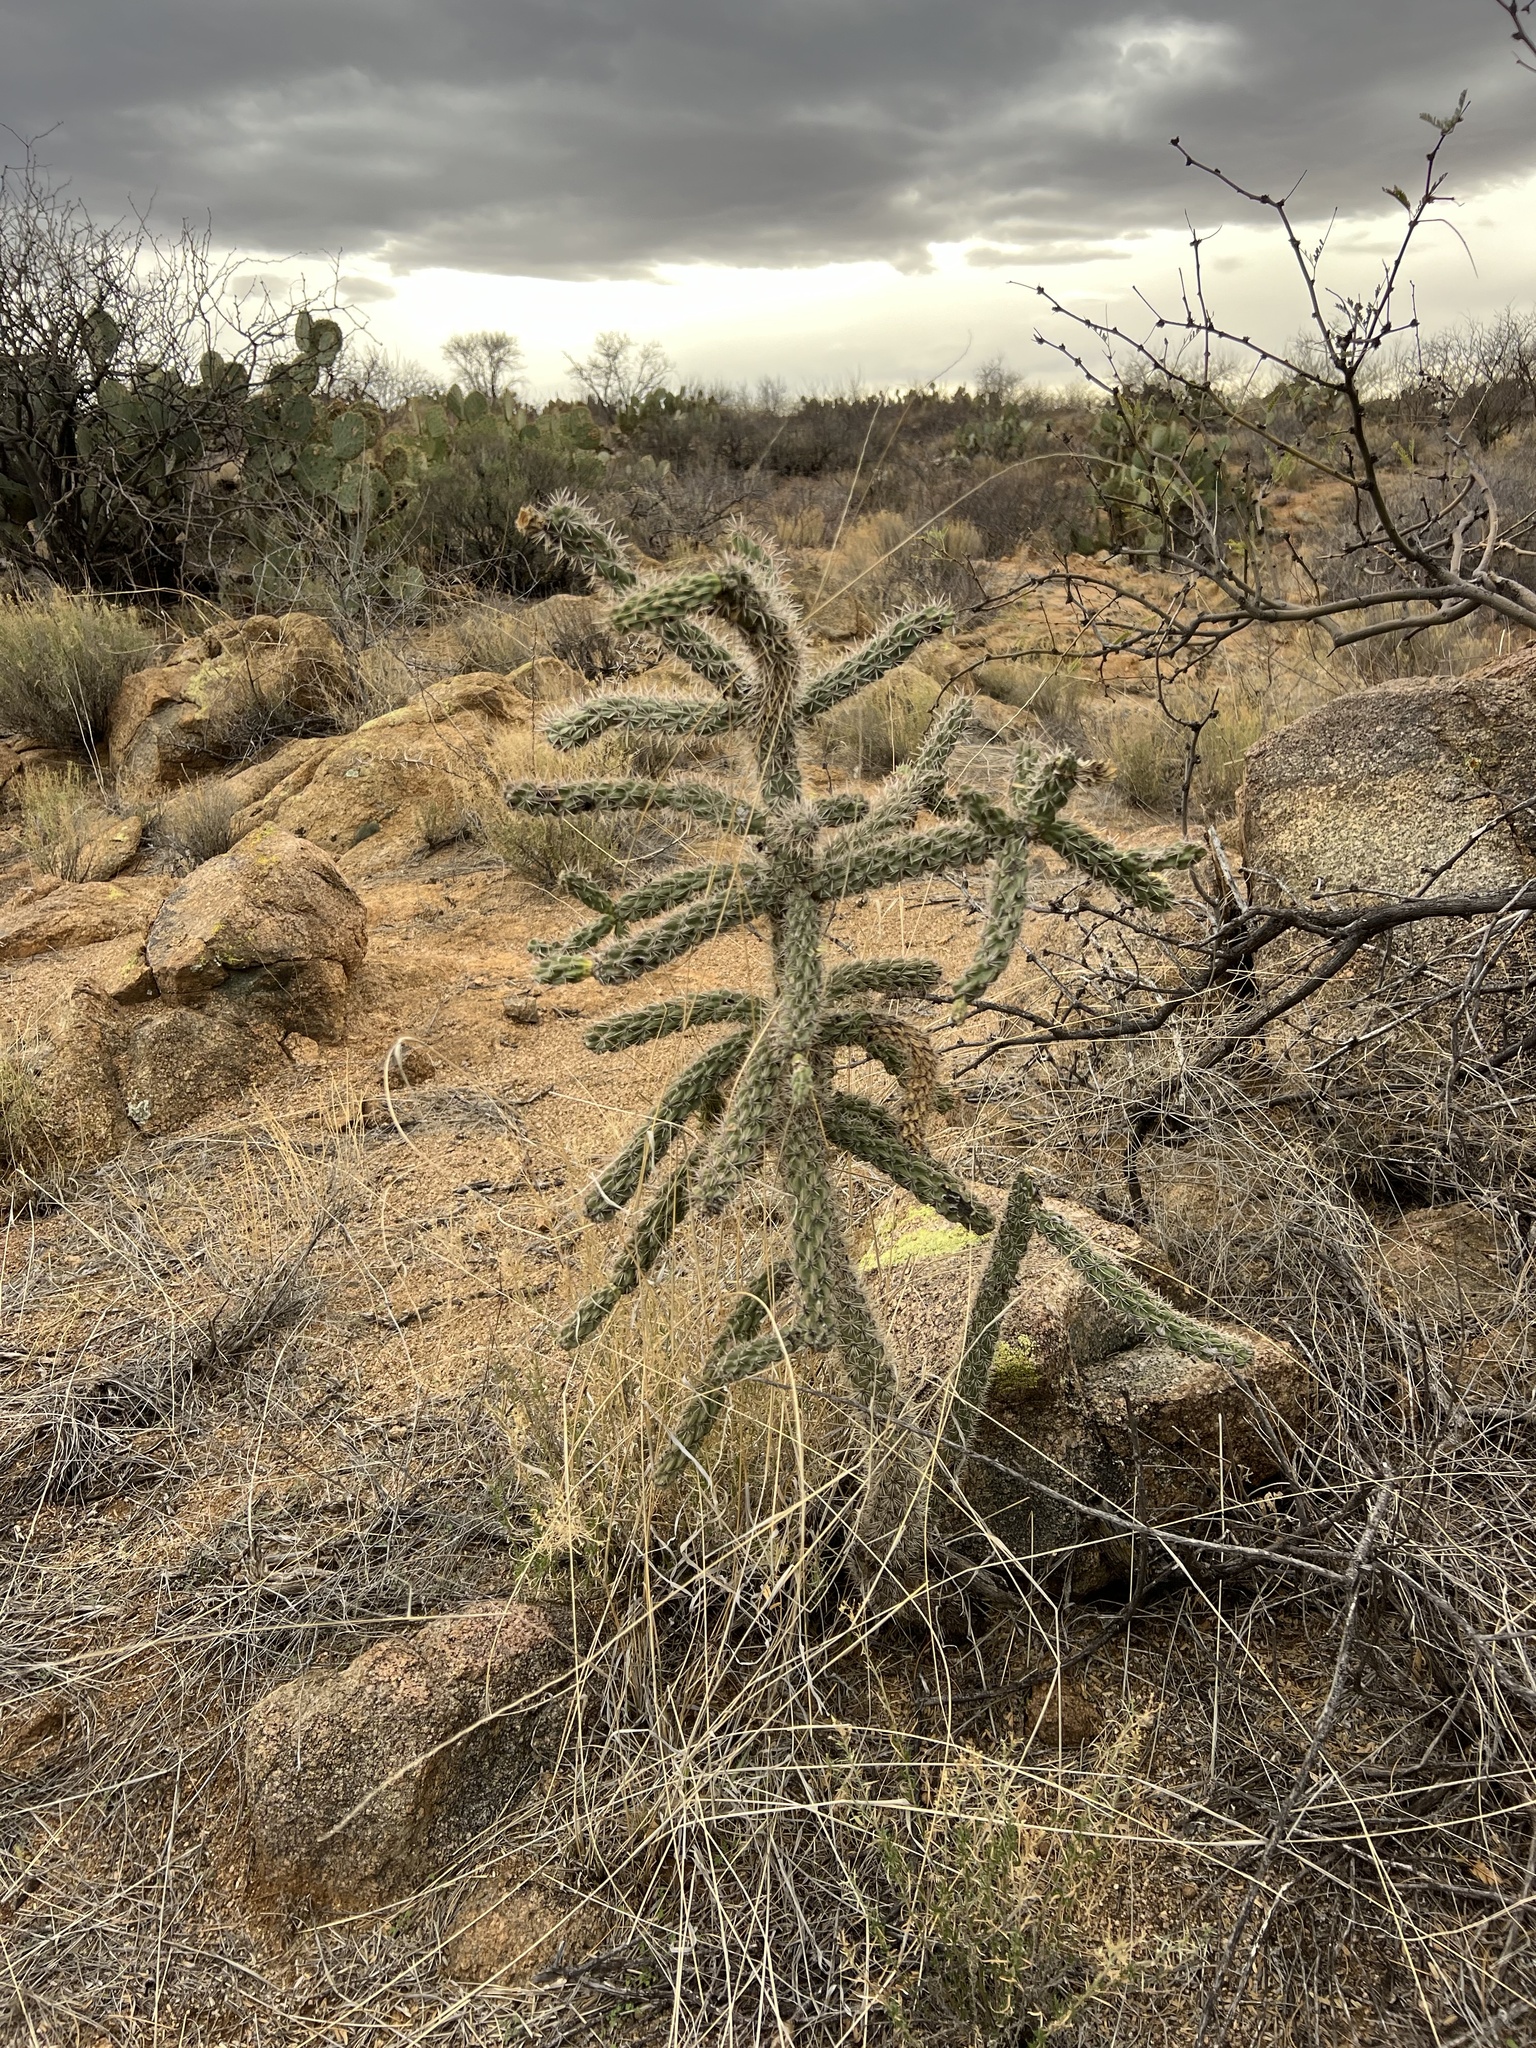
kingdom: Plantae
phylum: Tracheophyta
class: Magnoliopsida
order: Caryophyllales
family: Cactaceae
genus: Cylindropuntia
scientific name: Cylindropuntia imbricata
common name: Candelabrum cactus
